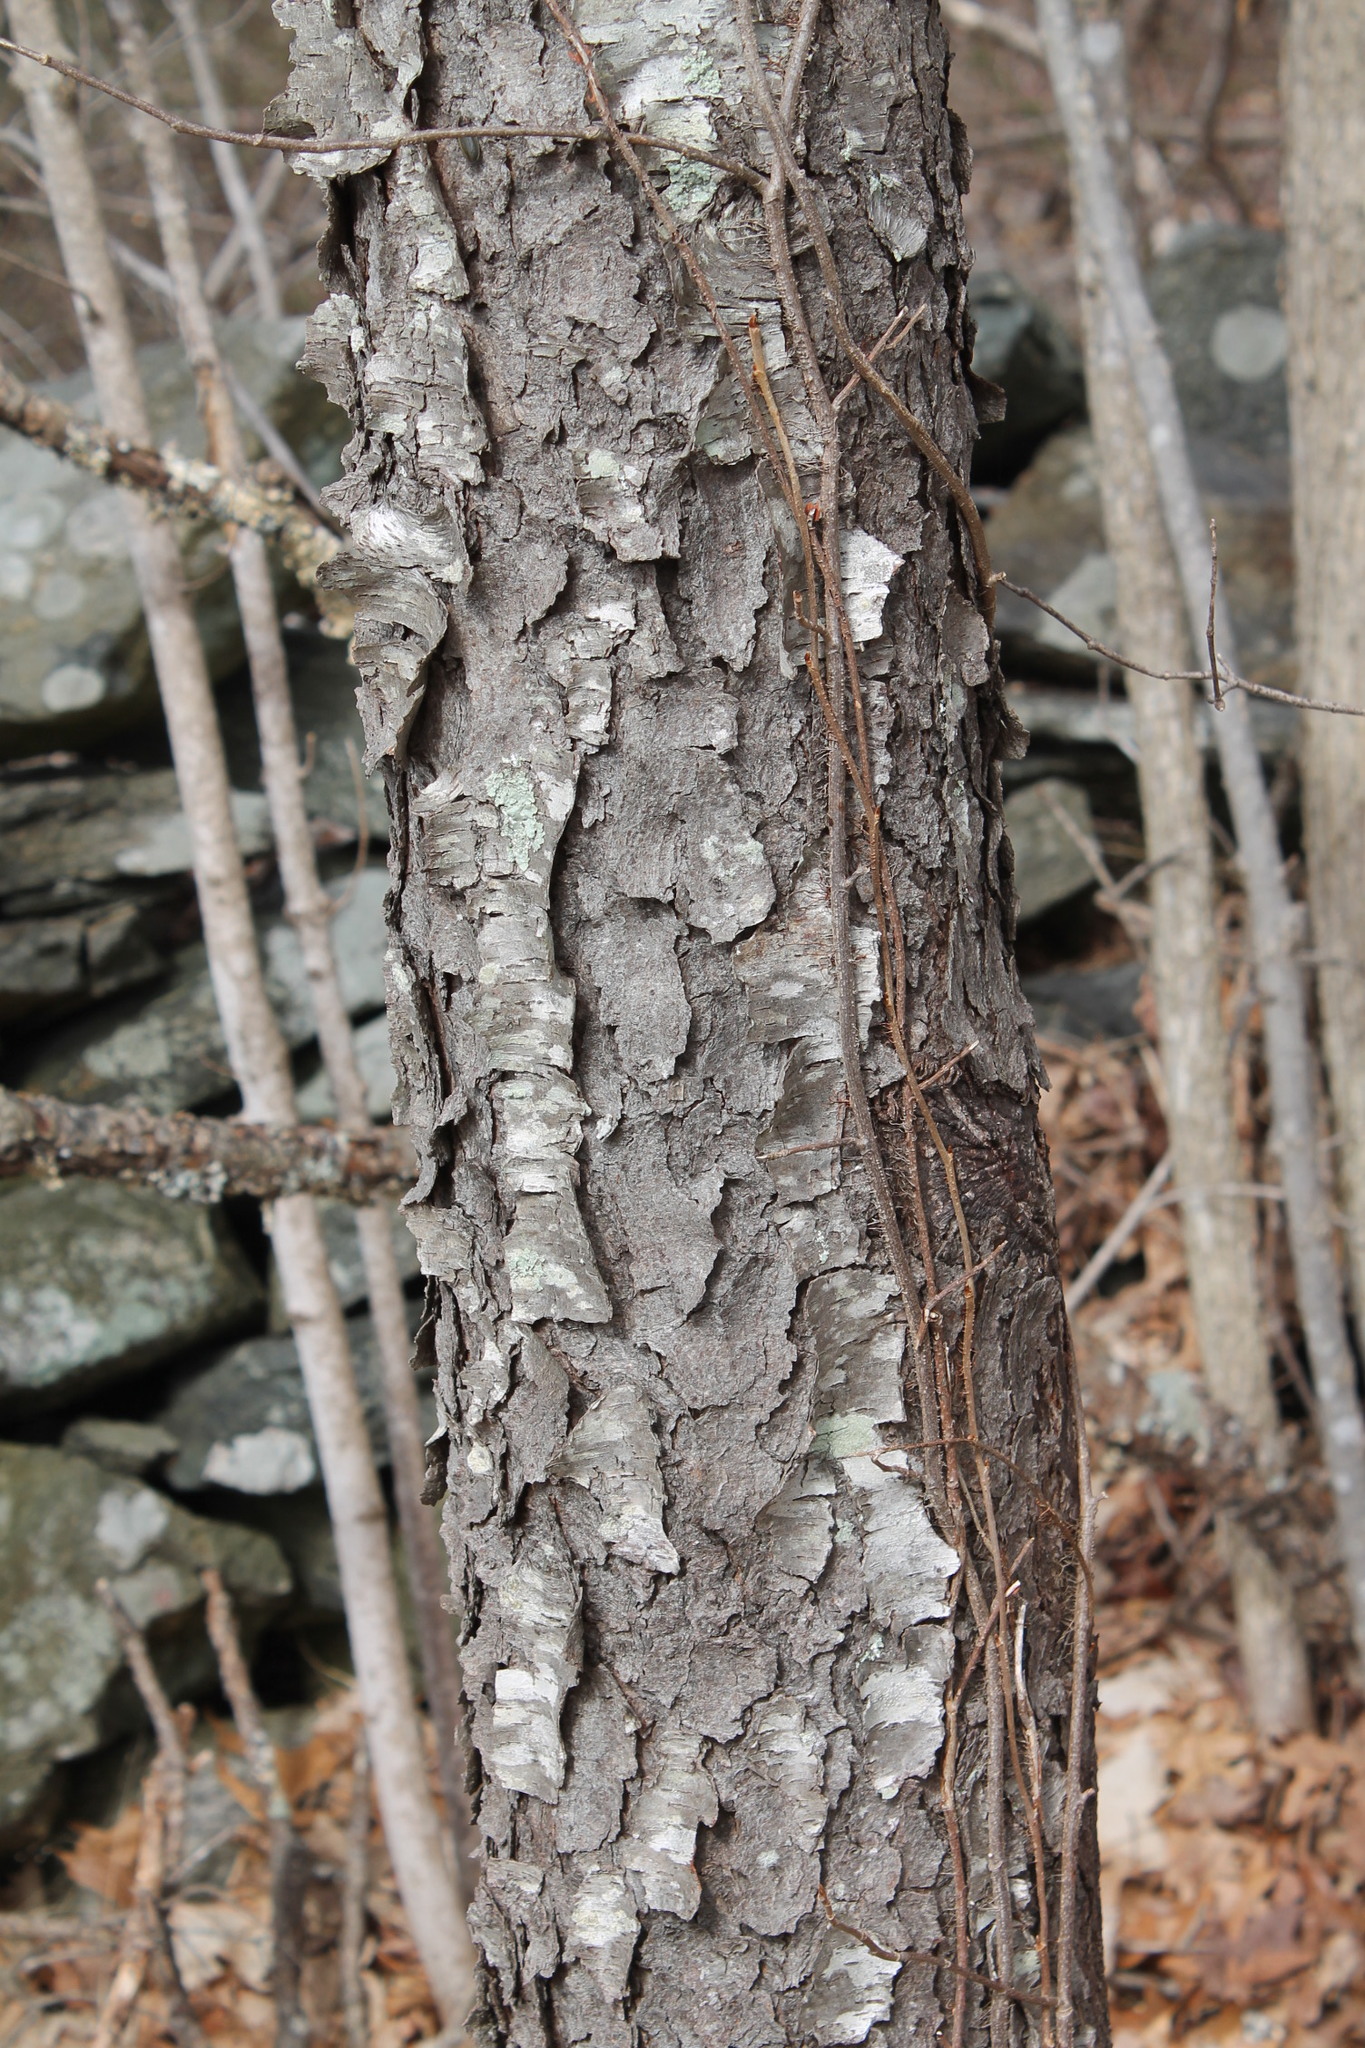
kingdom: Plantae
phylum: Tracheophyta
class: Magnoliopsida
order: Rosales
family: Rosaceae
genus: Prunus
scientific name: Prunus serotina
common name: Black cherry
